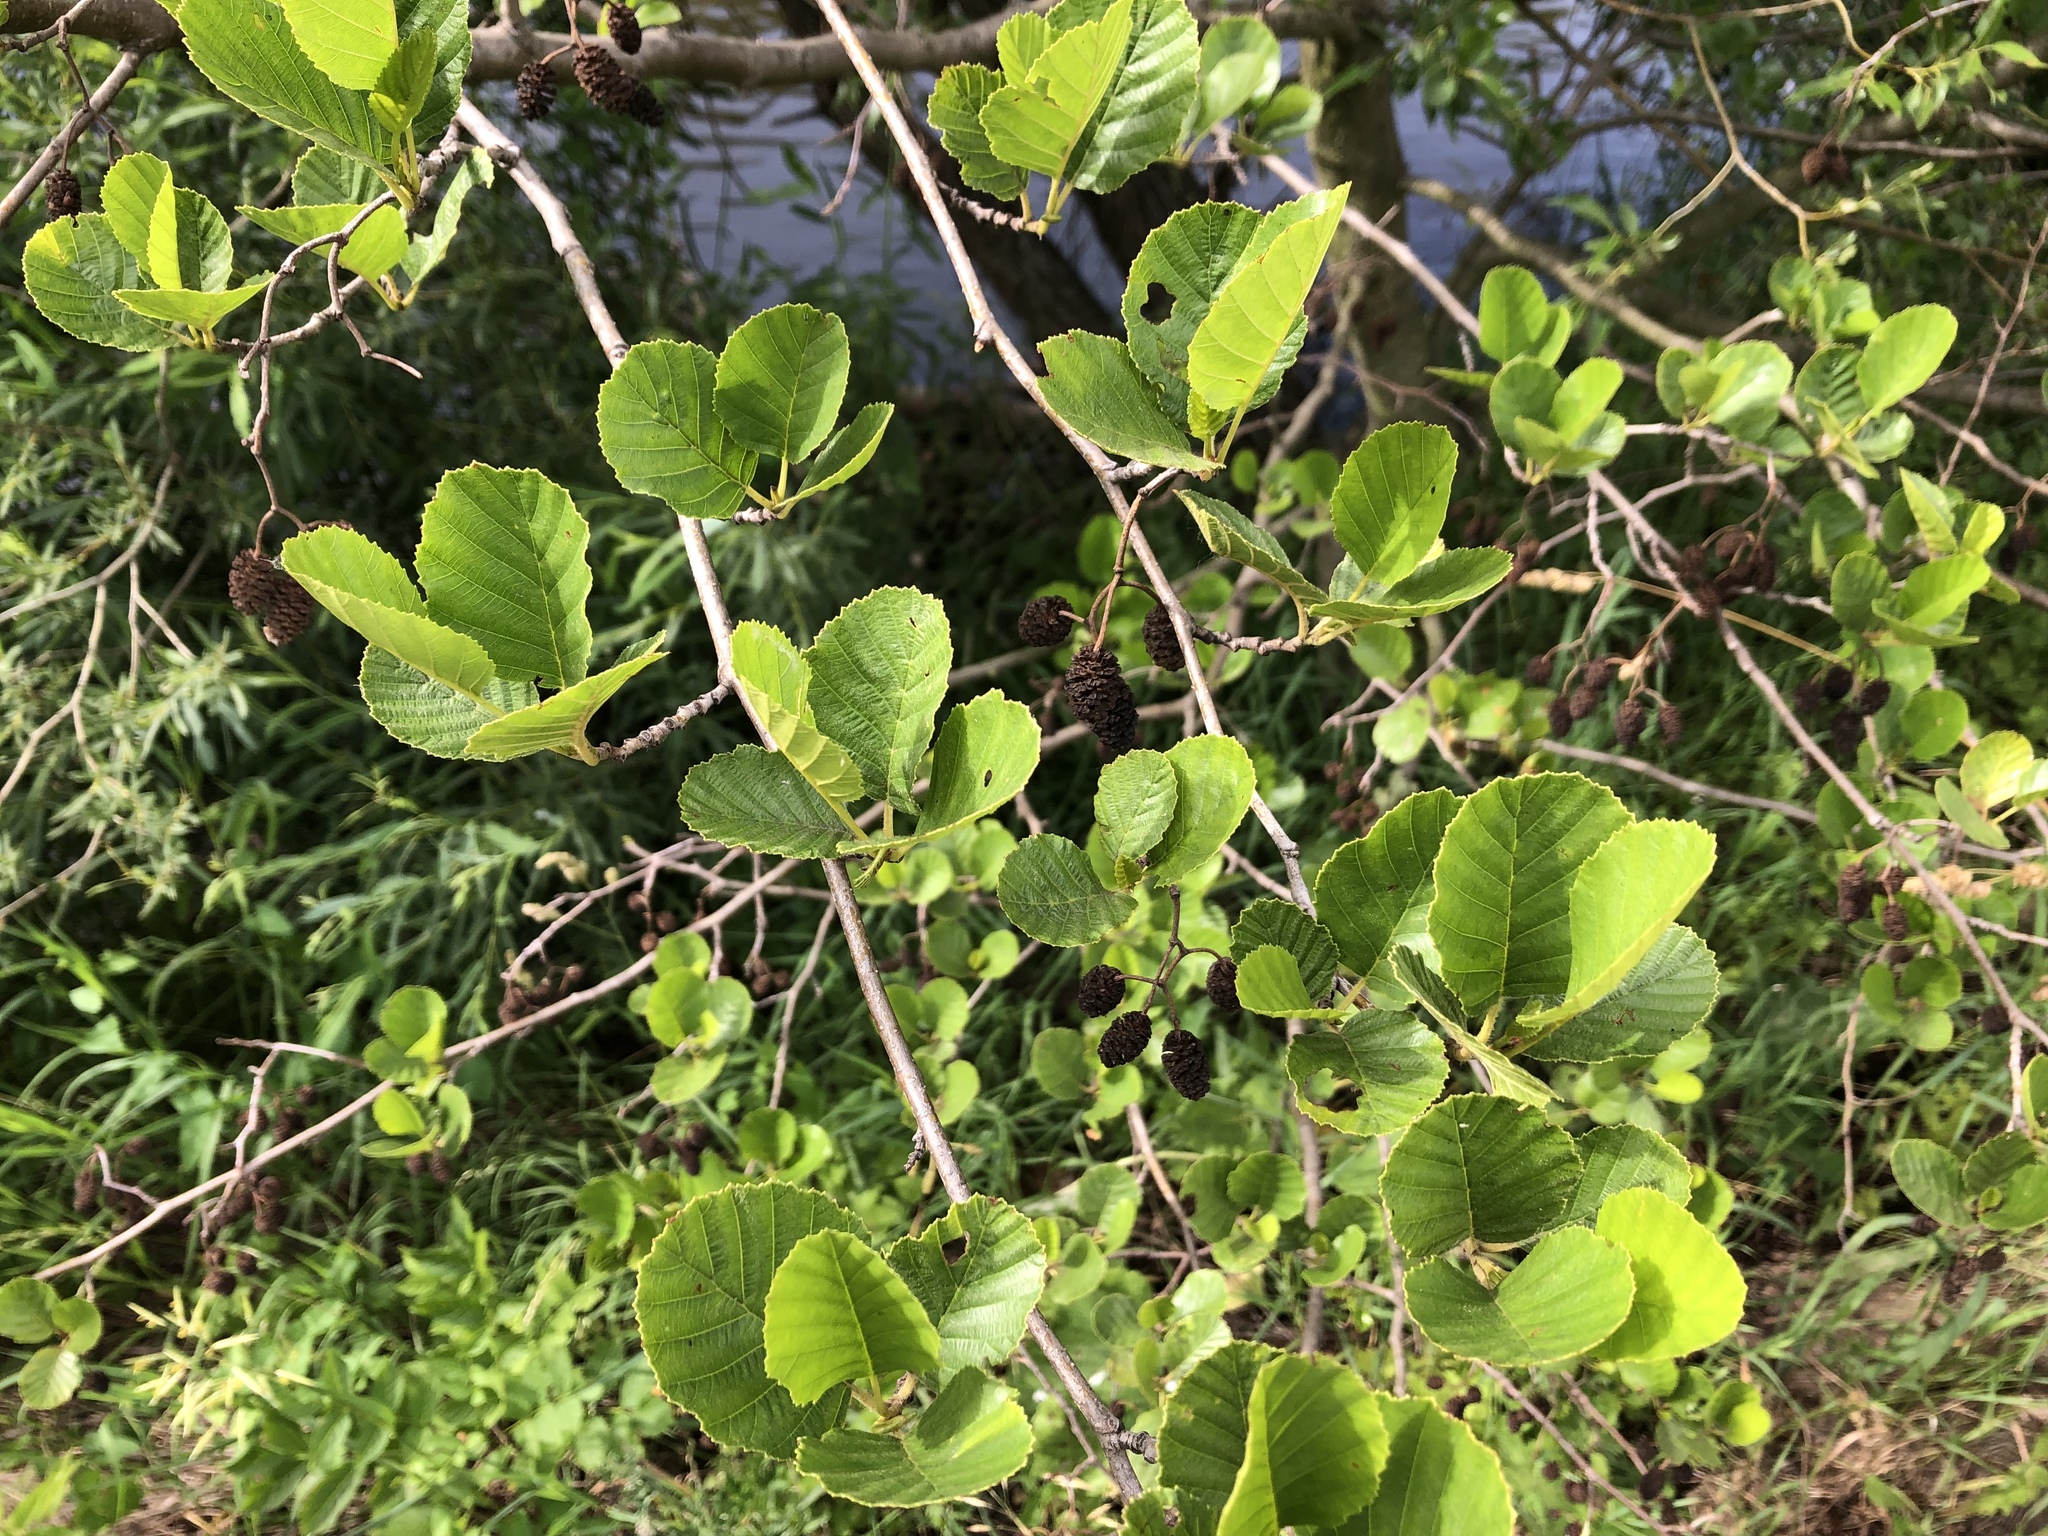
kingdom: Plantae
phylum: Tracheophyta
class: Magnoliopsida
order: Fagales
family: Betulaceae
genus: Alnus
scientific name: Alnus glutinosa
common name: Black alder
